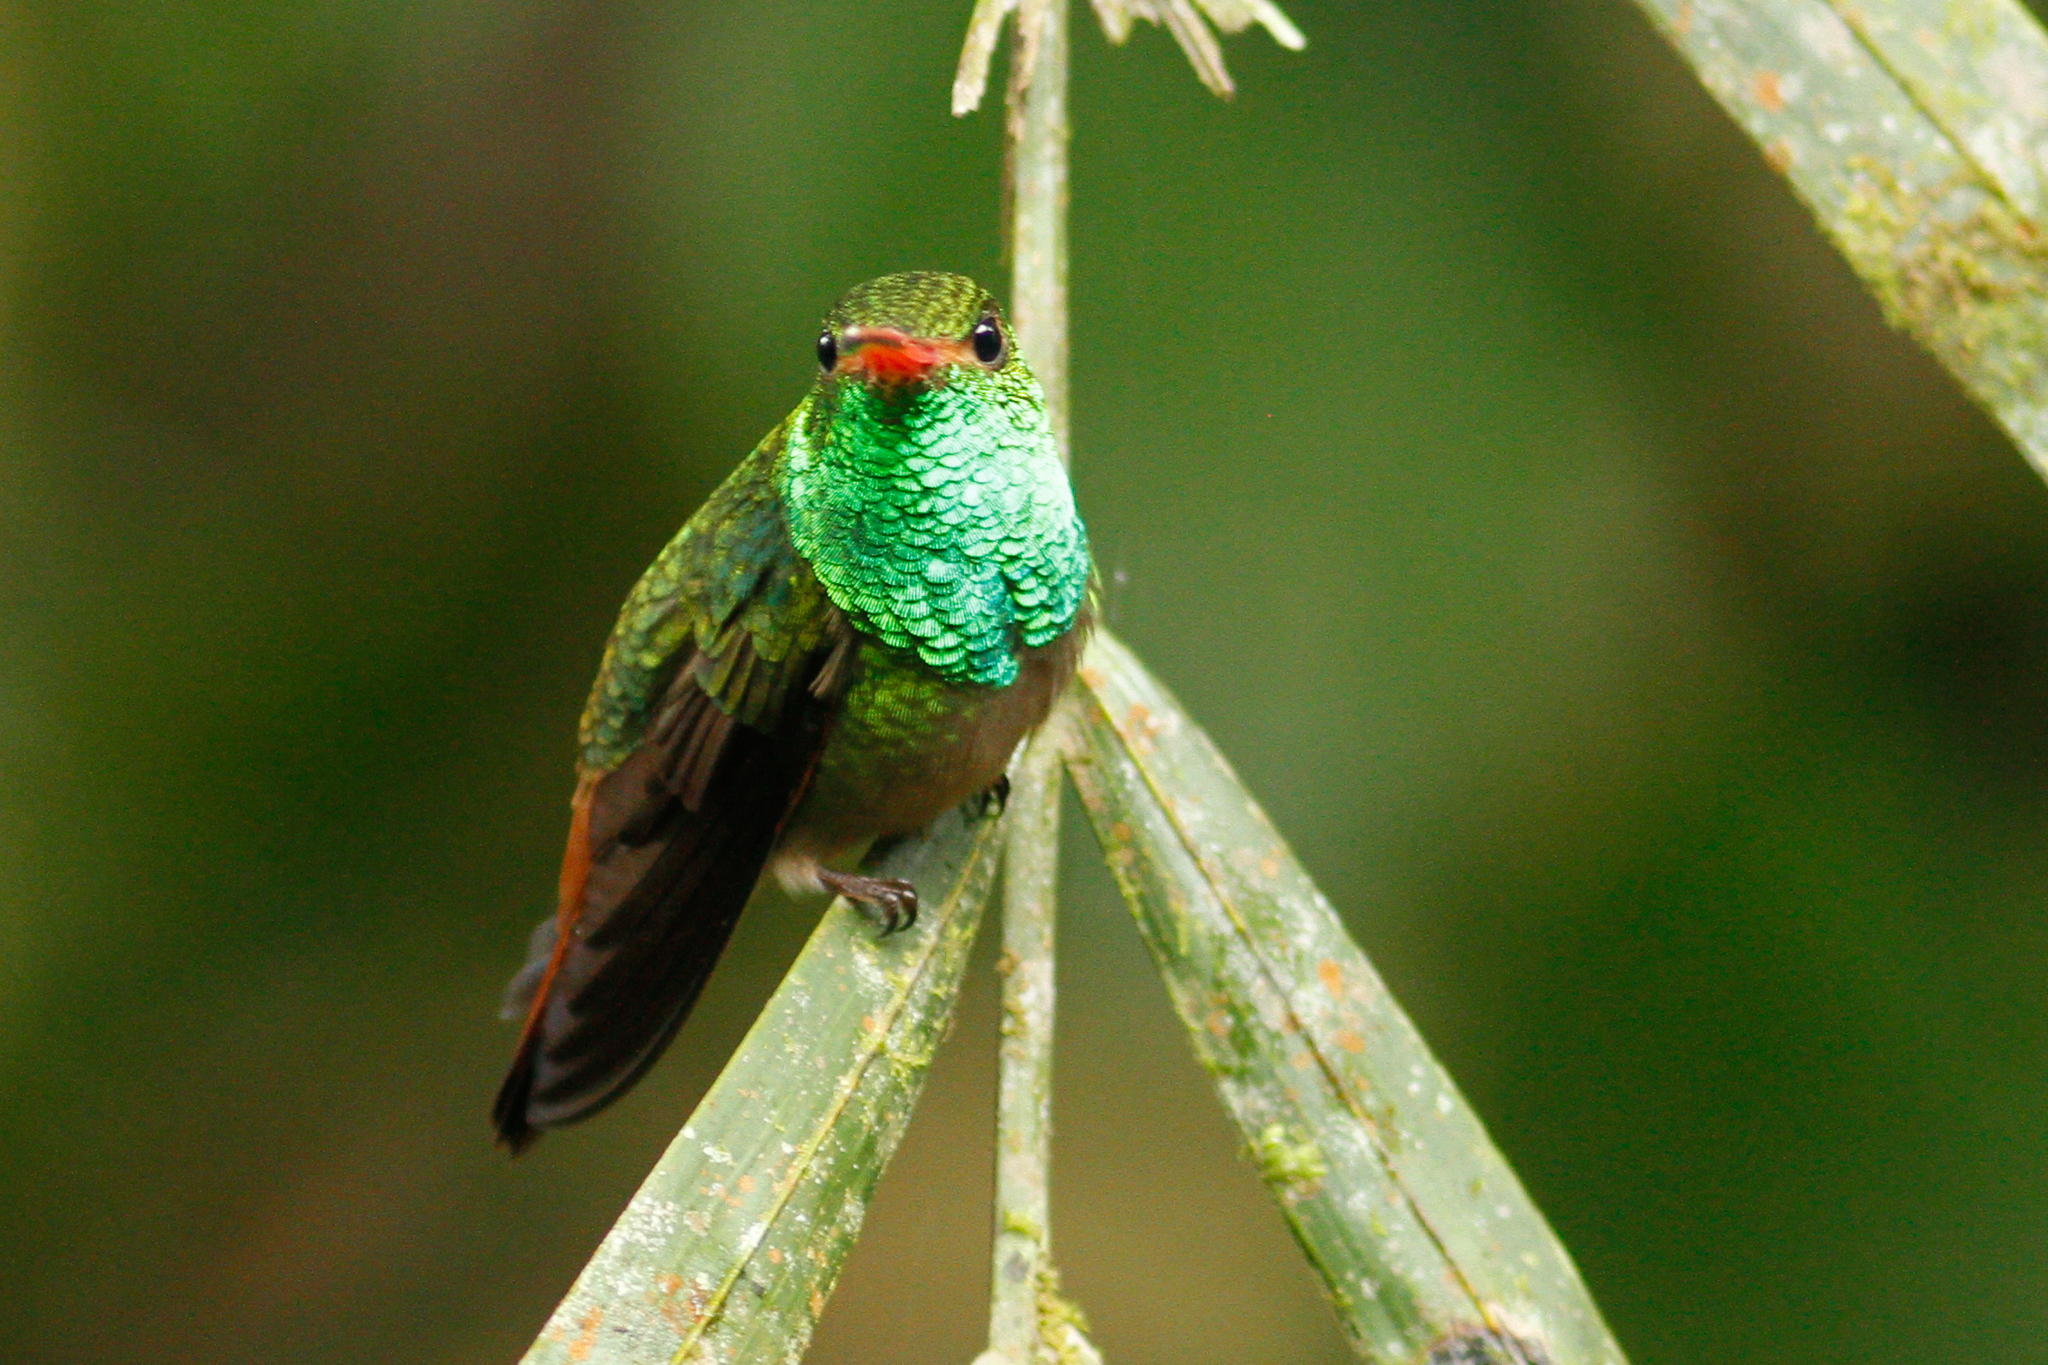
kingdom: Animalia
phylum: Chordata
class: Aves
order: Apodiformes
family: Trochilidae
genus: Amazilia
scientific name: Amazilia tzacatl
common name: Rufous-tailed hummingbird
